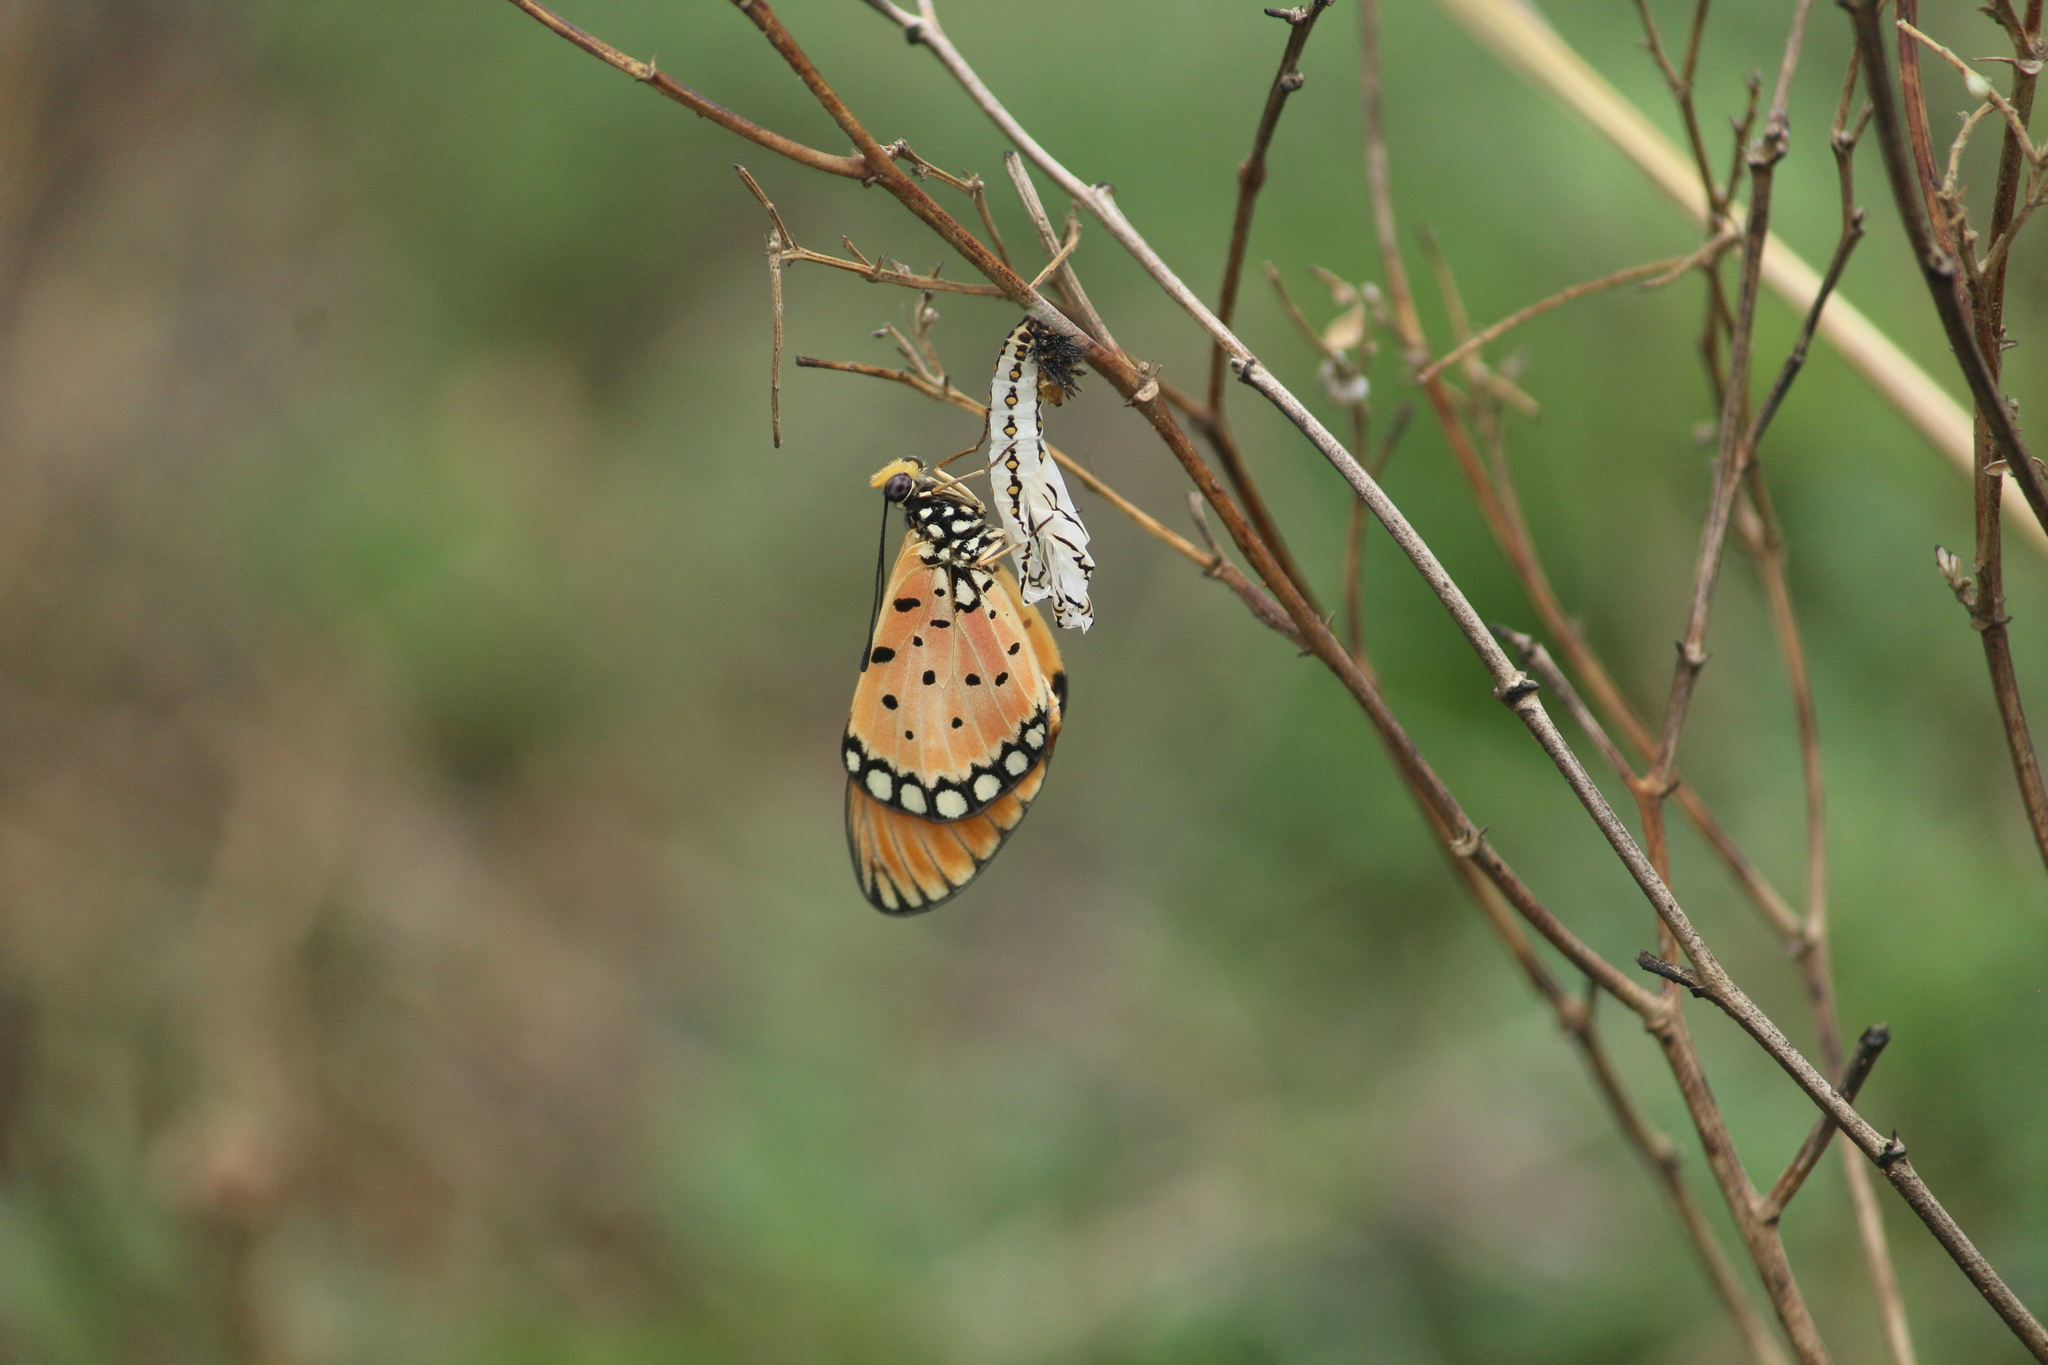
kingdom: Animalia
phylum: Arthropoda
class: Insecta
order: Lepidoptera
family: Nymphalidae
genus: Acraea
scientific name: Acraea terpsicore
